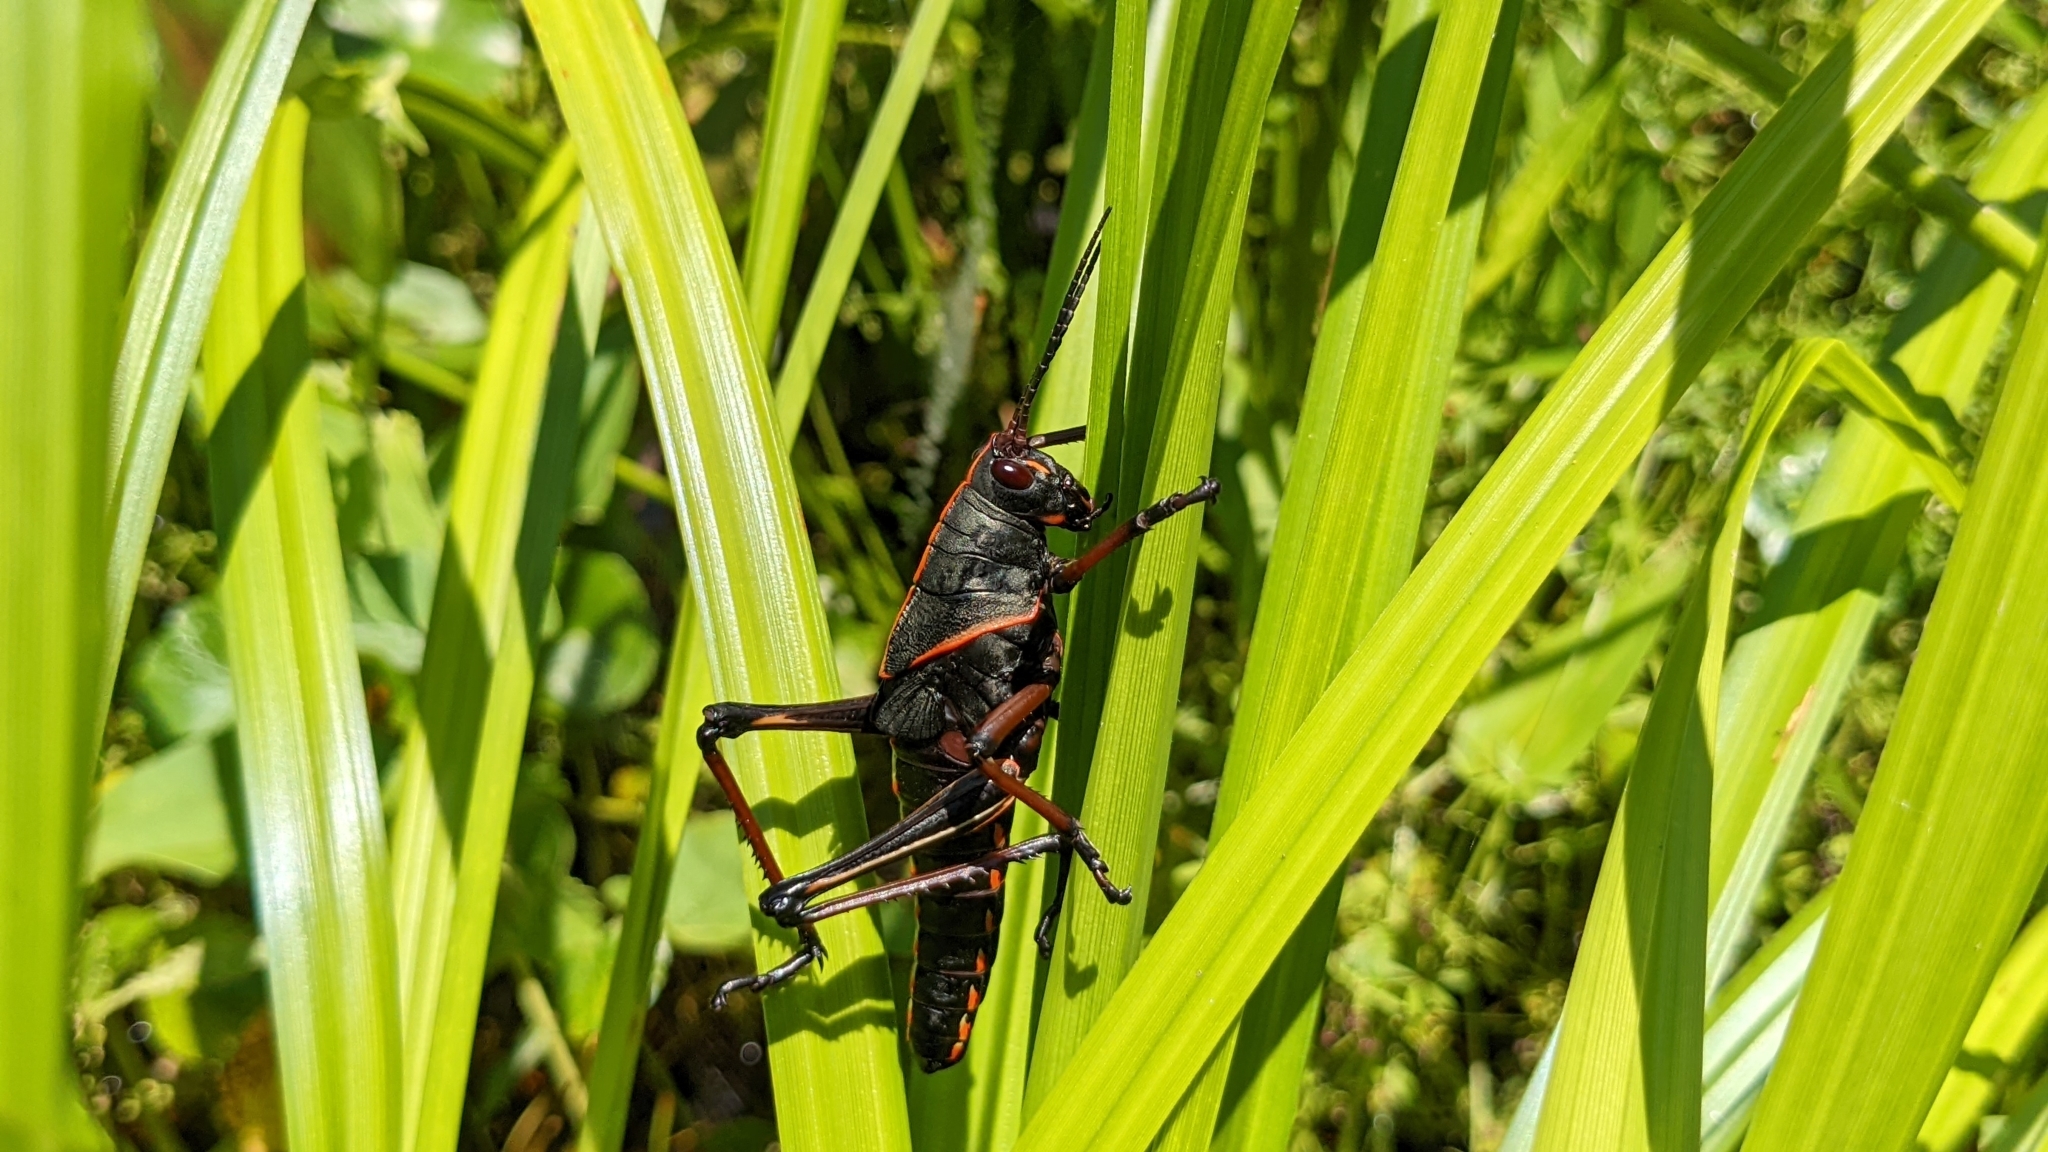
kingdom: Animalia
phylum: Arthropoda
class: Insecta
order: Orthoptera
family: Romaleidae
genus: Romalea
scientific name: Romalea microptera
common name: Eastern lubber grasshopper
